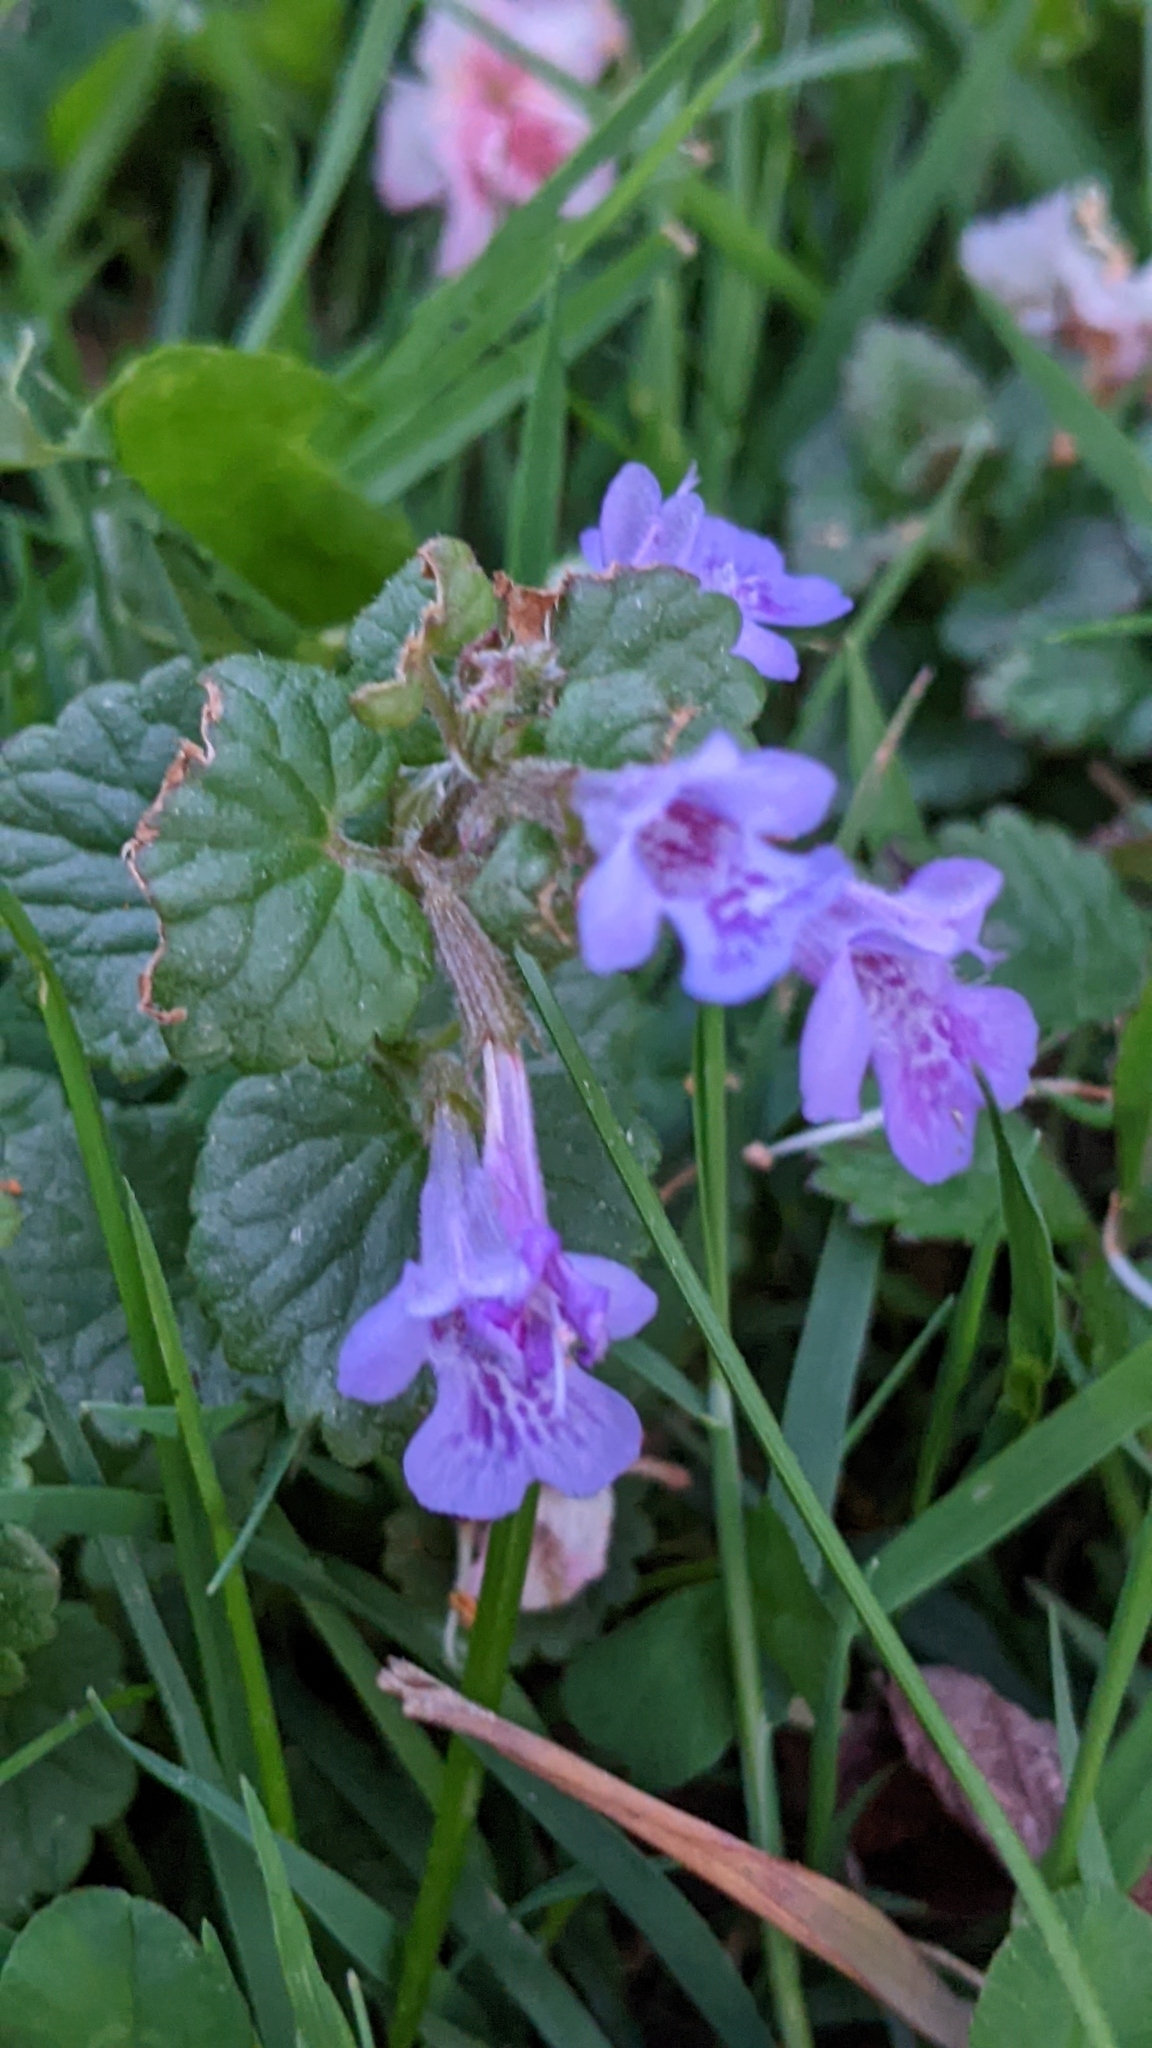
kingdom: Plantae
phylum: Tracheophyta
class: Magnoliopsida
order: Lamiales
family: Lamiaceae
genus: Glechoma
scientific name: Glechoma hederacea
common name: Ground ivy
